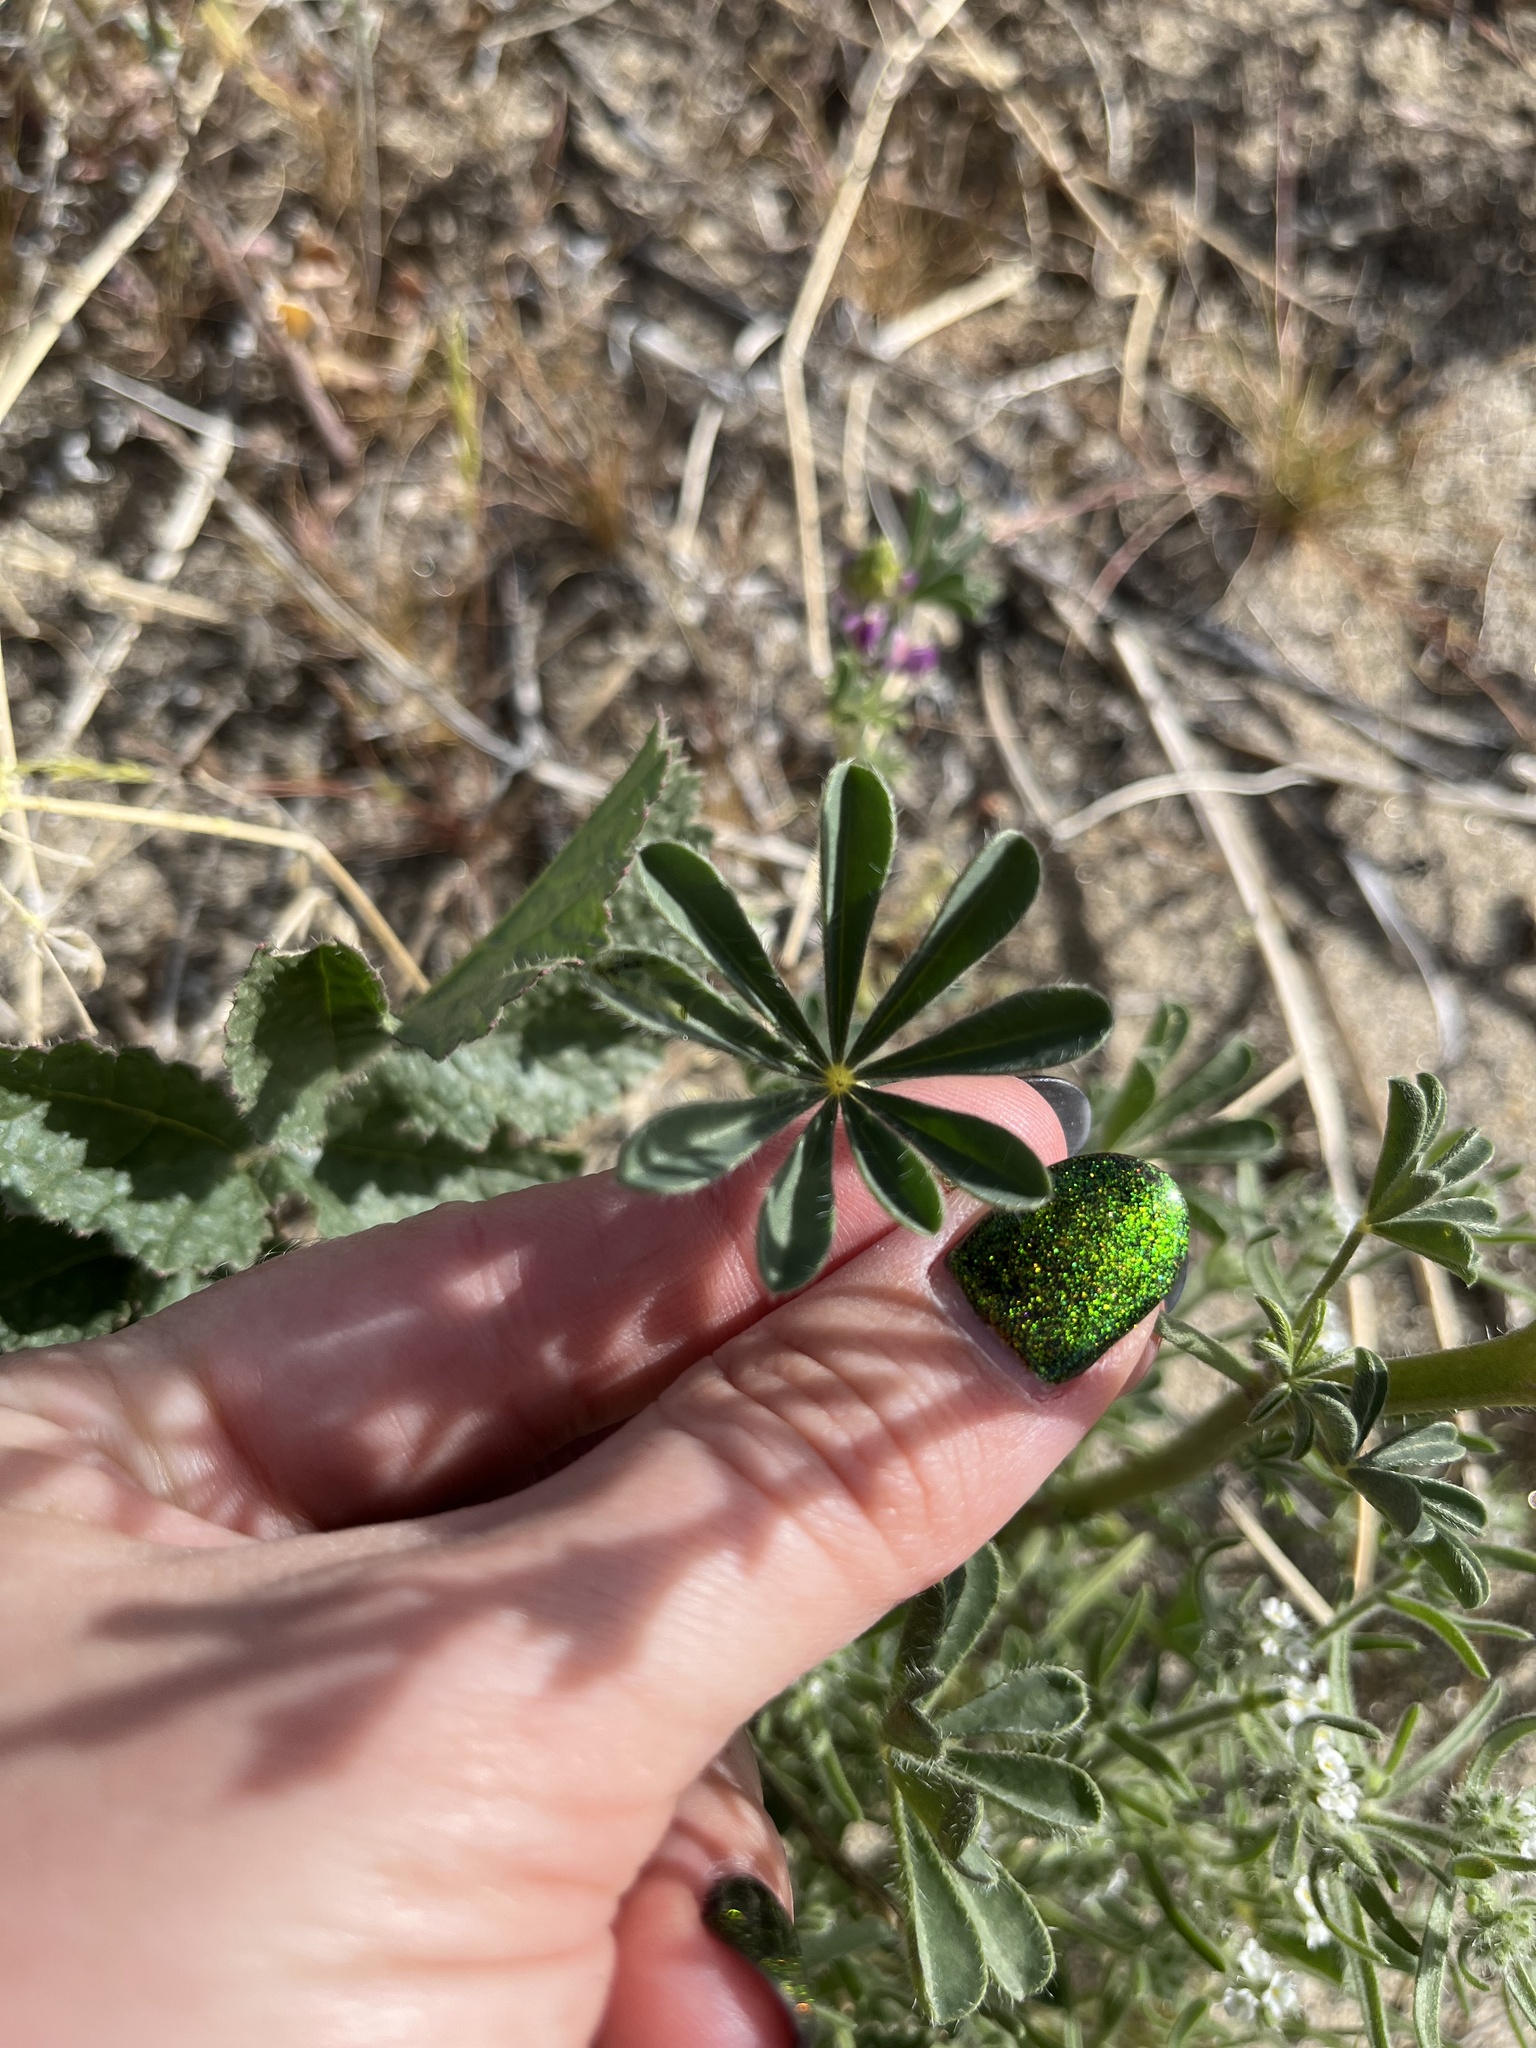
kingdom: Plantae
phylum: Tracheophyta
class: Magnoliopsida
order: Fabales
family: Fabaceae
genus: Lupinus
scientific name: Lupinus arizonicus
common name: Arizona lupine
